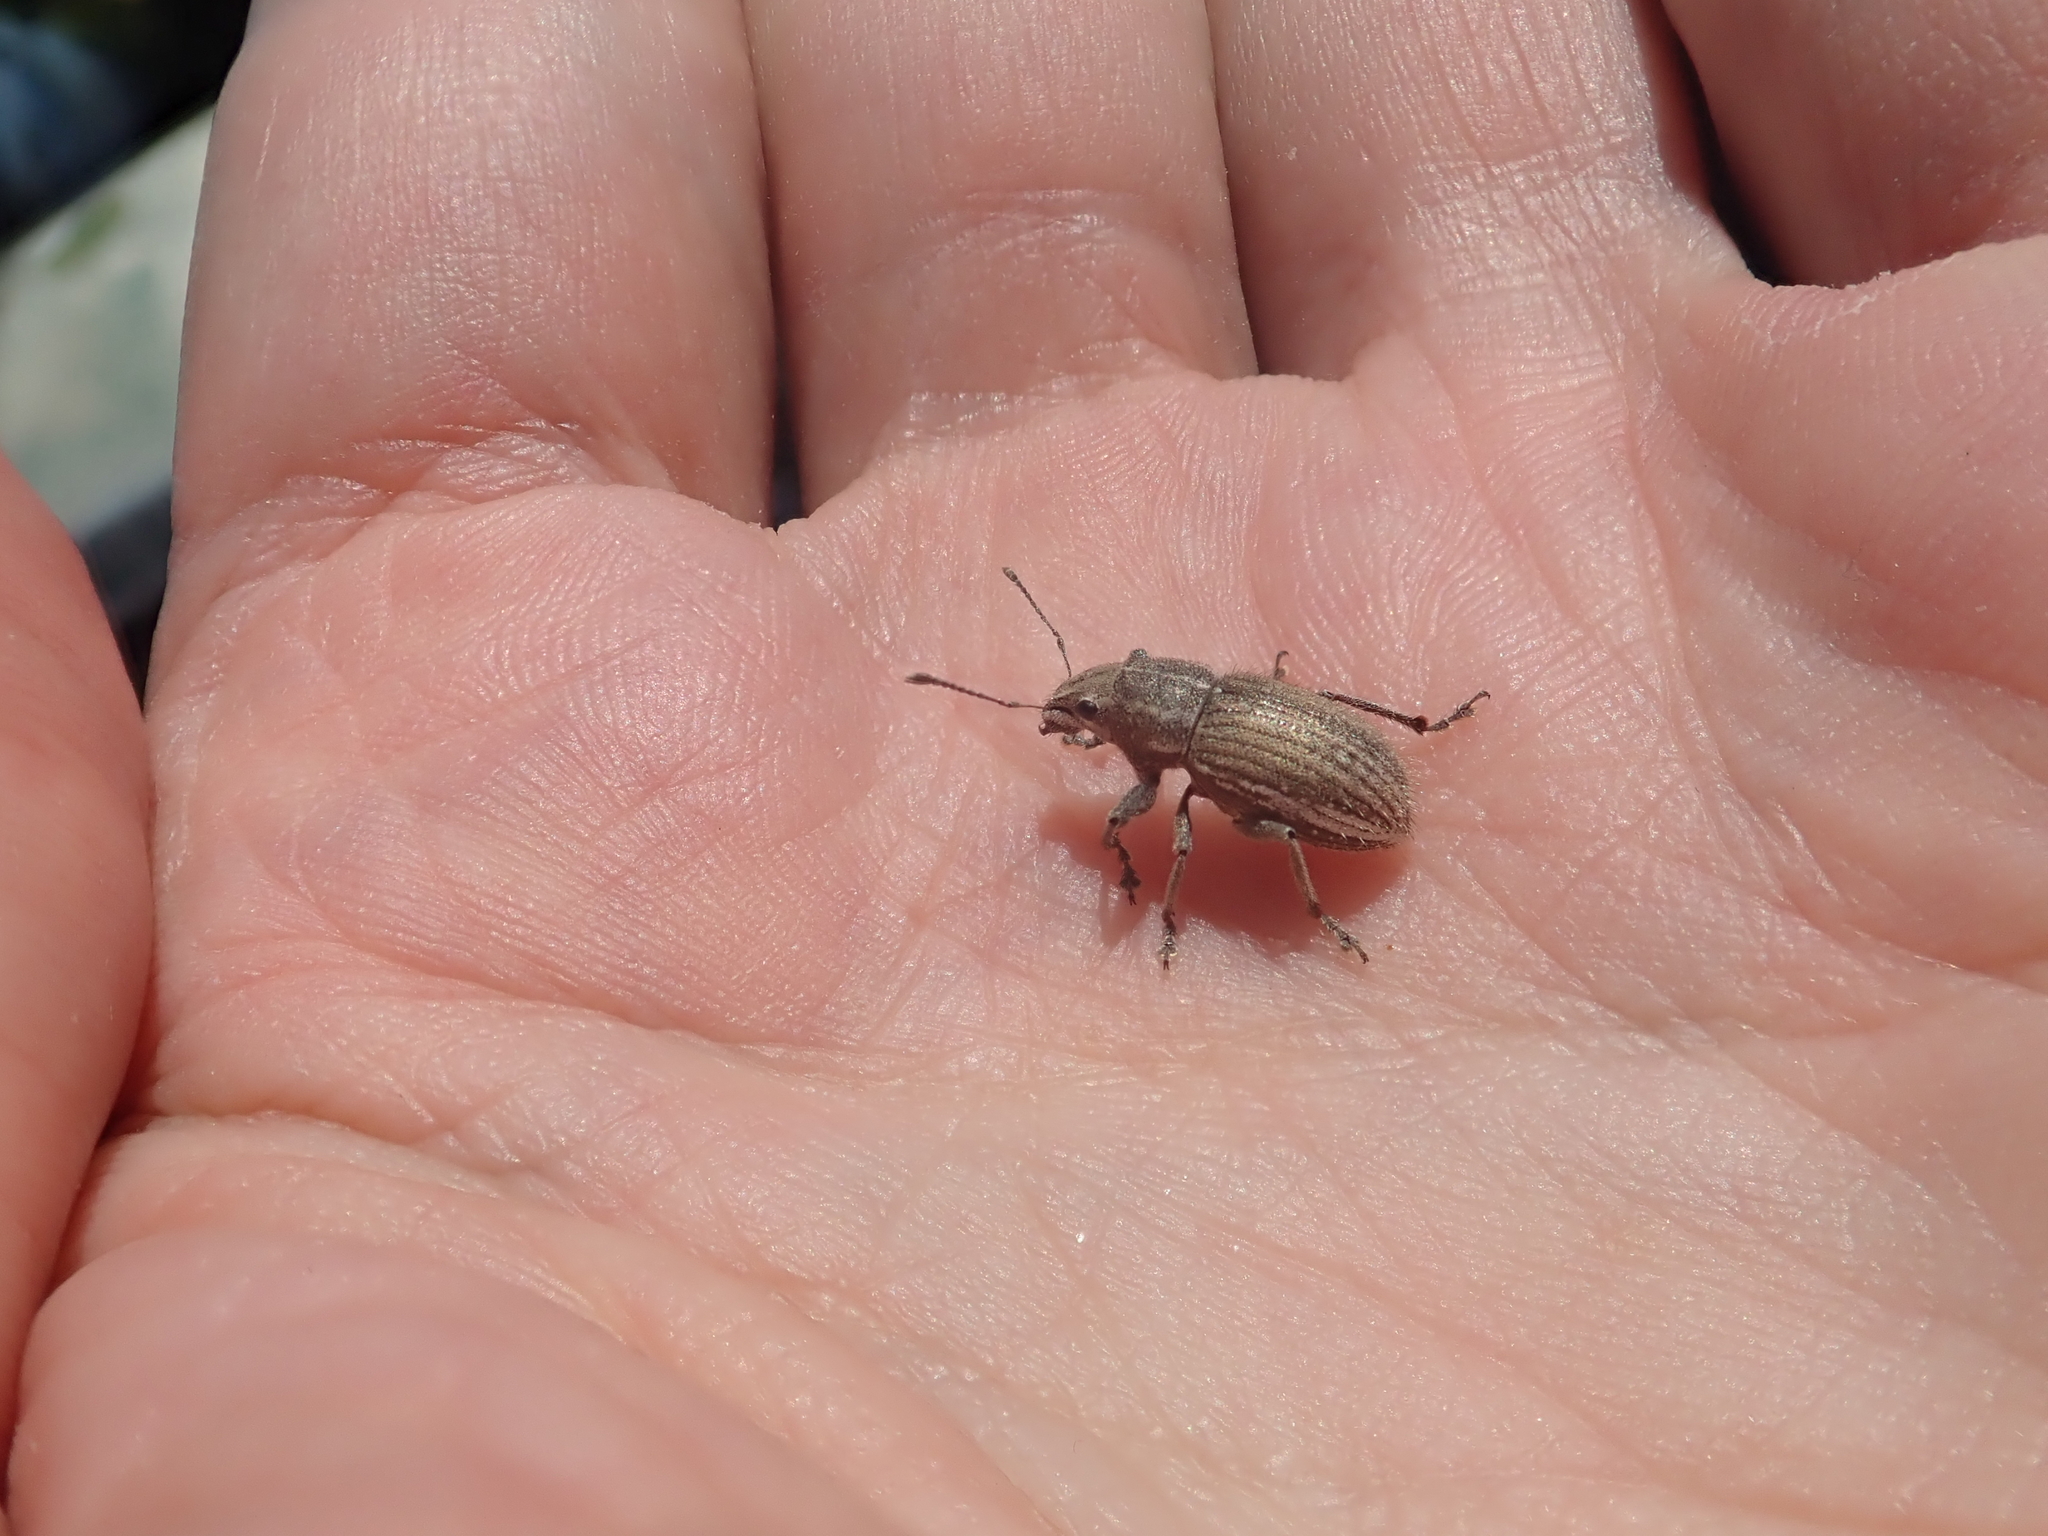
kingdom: Animalia
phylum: Arthropoda
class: Insecta
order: Coleoptera
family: Curculionidae
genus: Naupactus
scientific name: Naupactus leucoloma
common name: Whitefringed beetle
